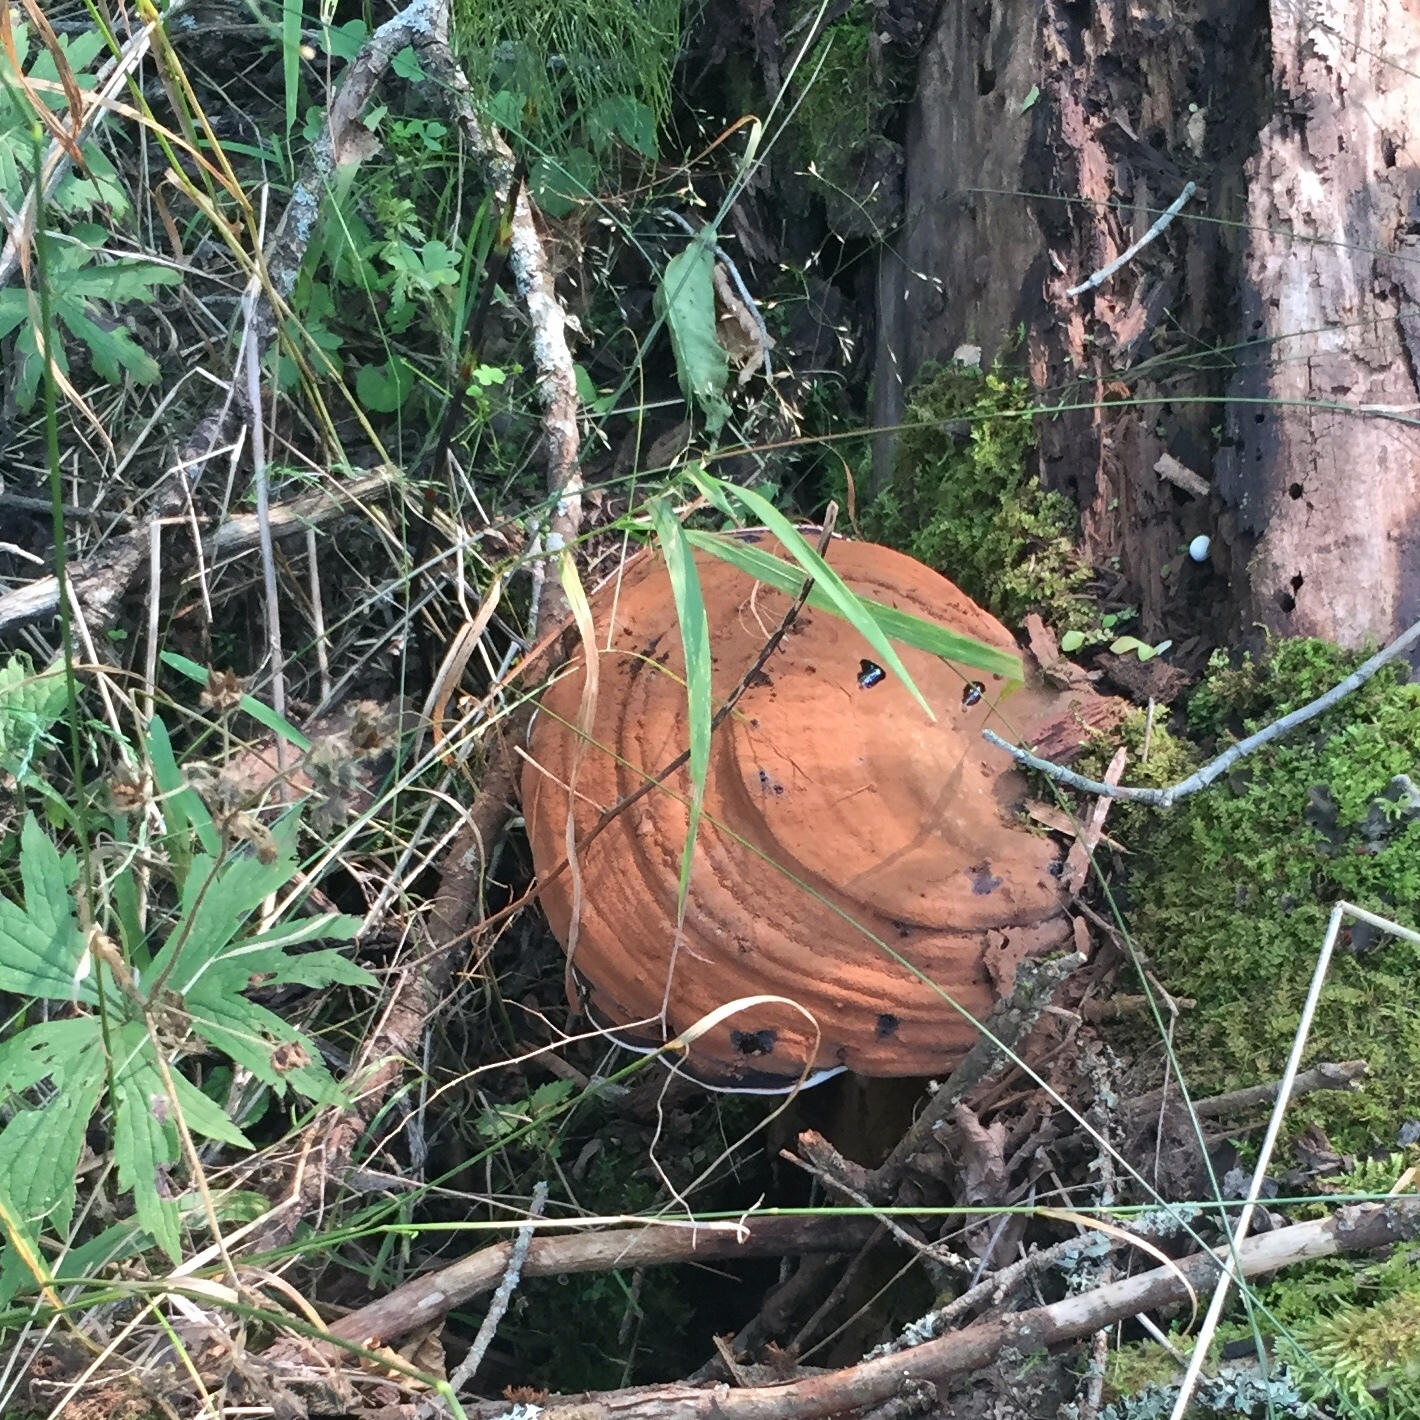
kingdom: Fungi
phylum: Basidiomycota
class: Agaricomycetes
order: Polyporales
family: Polyporaceae
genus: Ganoderma
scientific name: Ganoderma applanatum
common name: Artist's bracket
